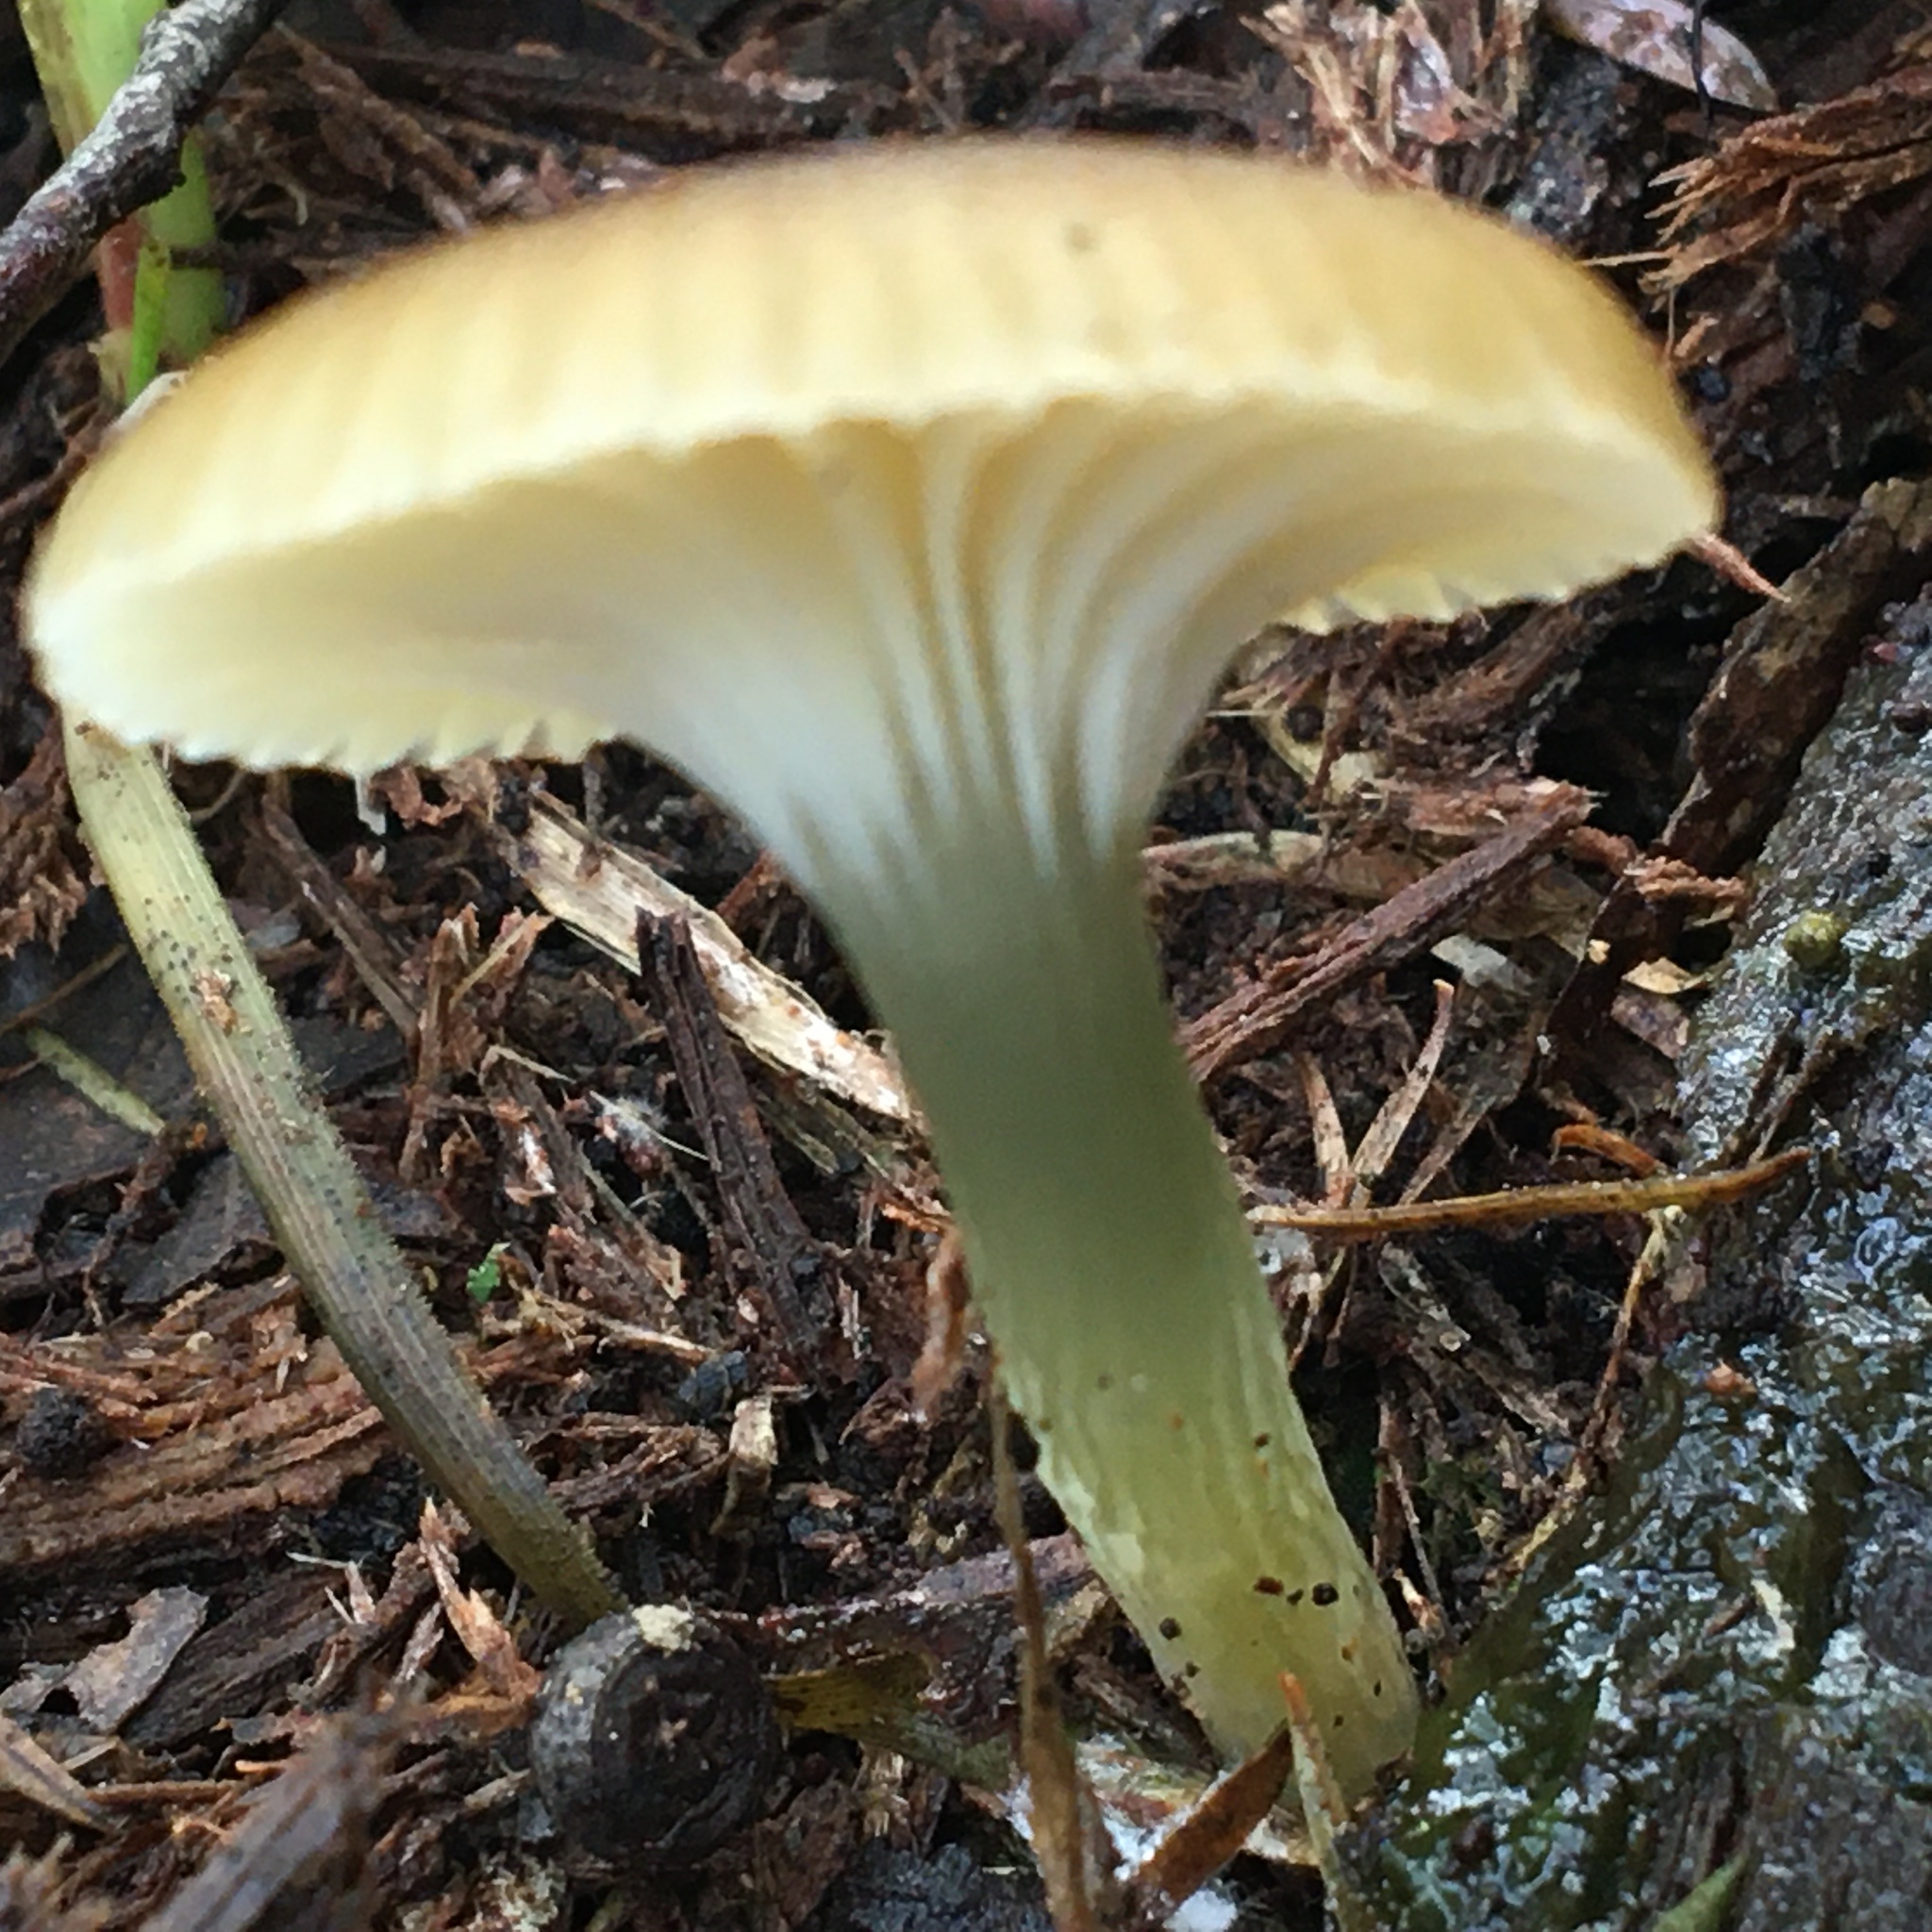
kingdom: Fungi
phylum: Basidiomycota
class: Agaricomycetes
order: Agaricales
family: Hygrophoraceae
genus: Gliophorus
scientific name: Gliophorus graminicolor
